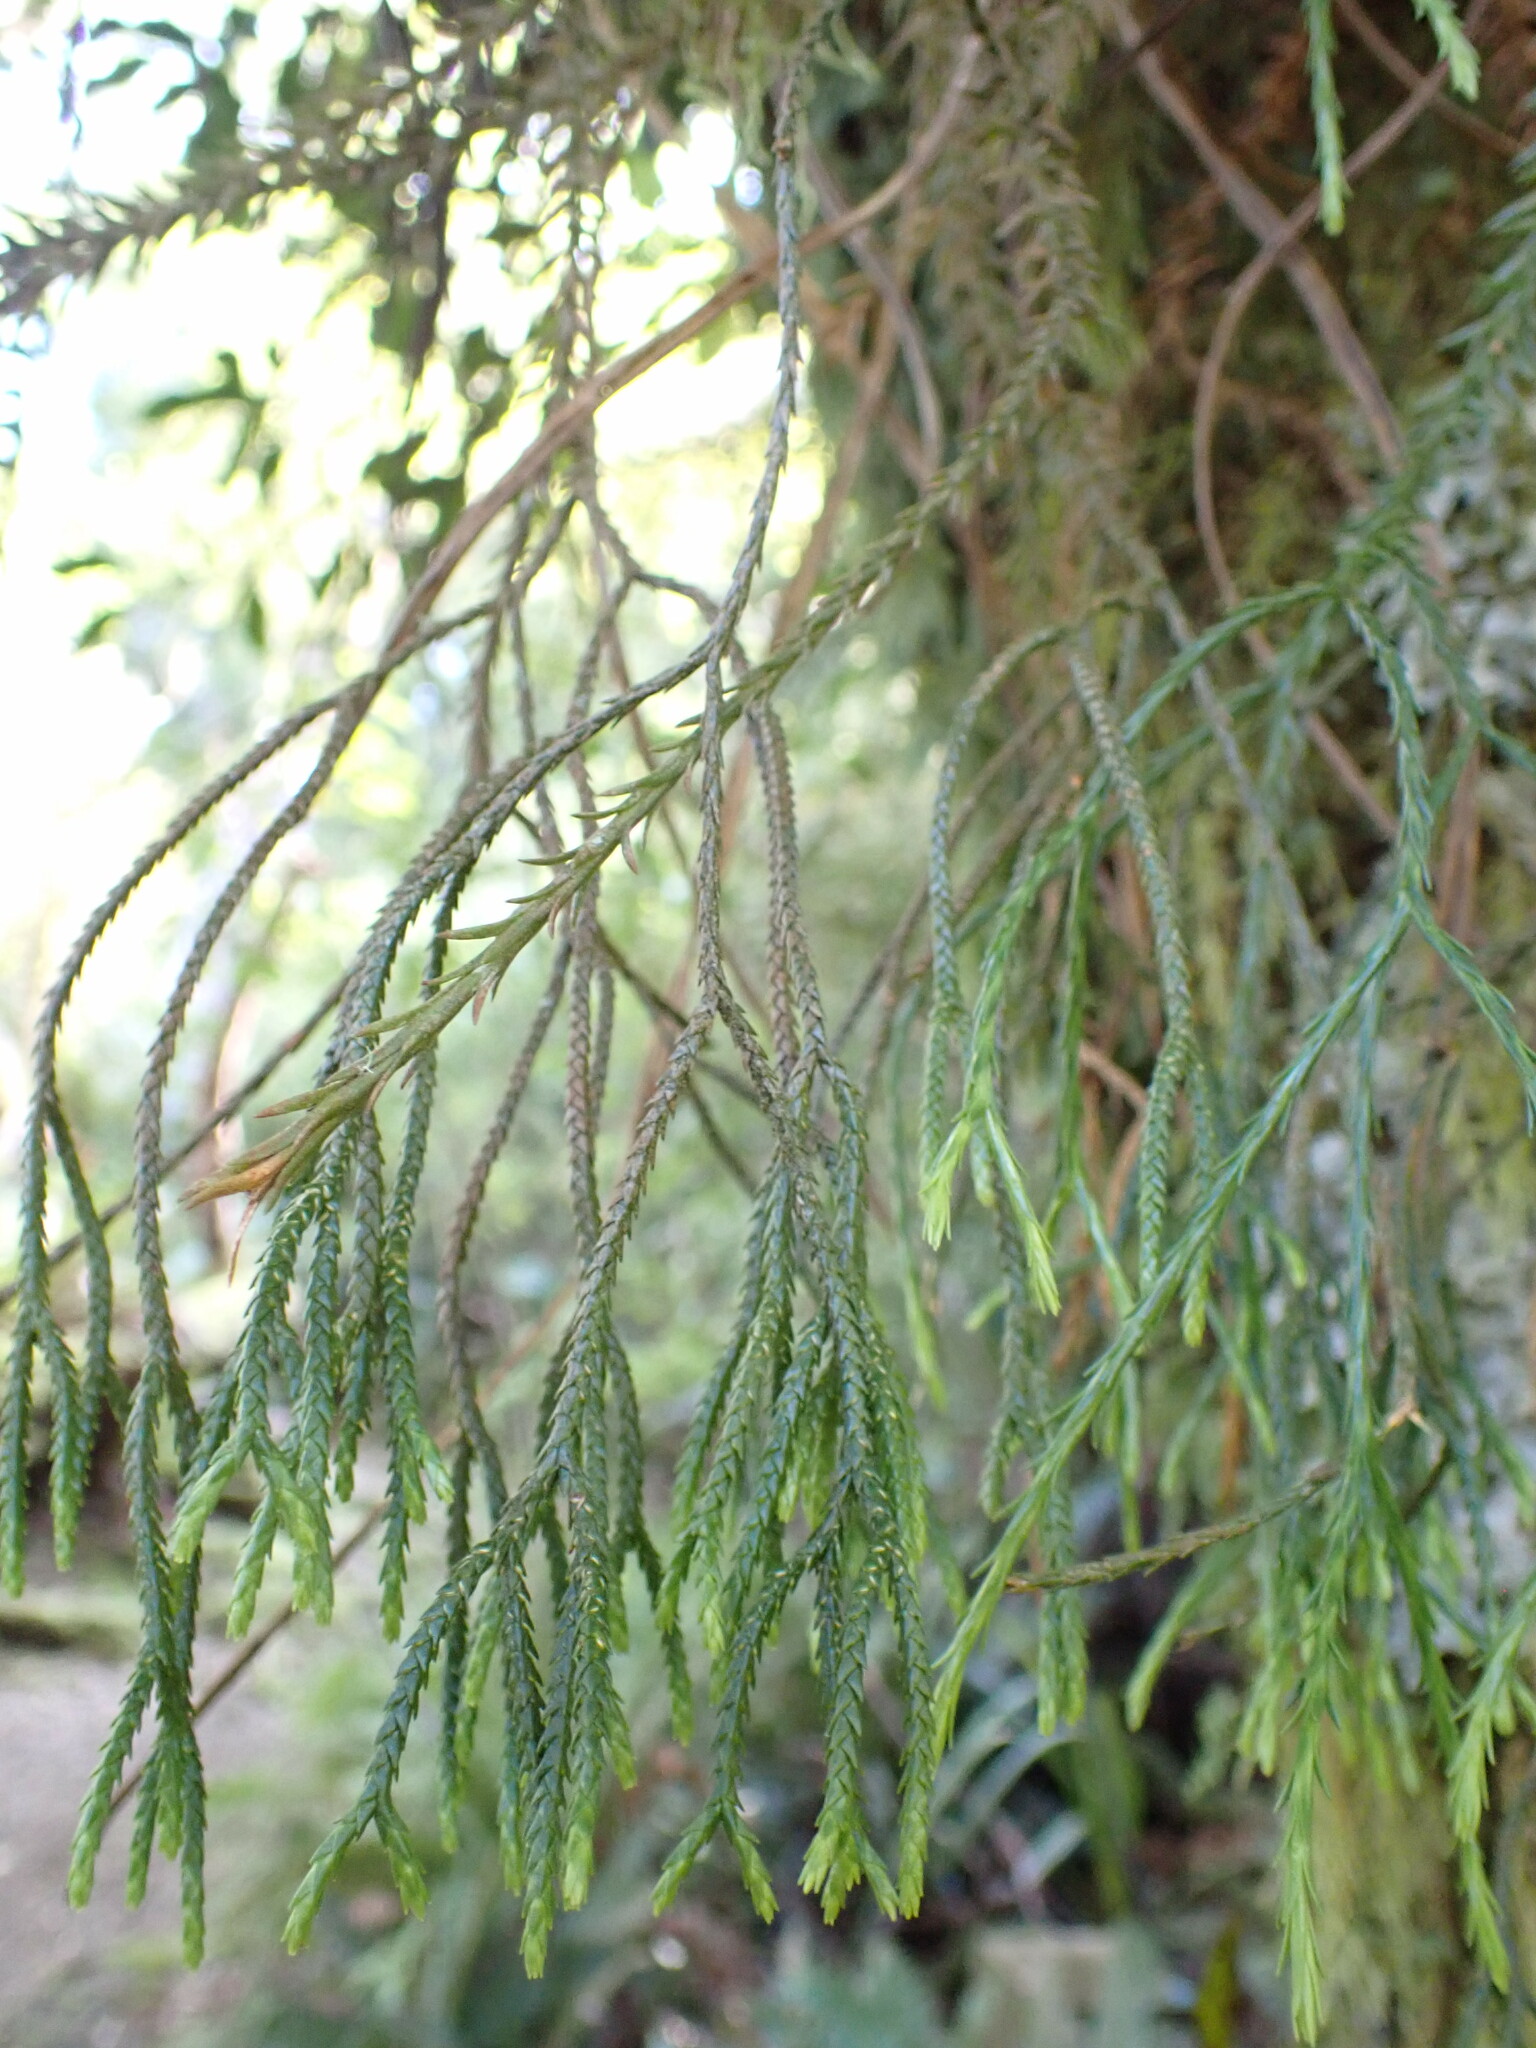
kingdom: Plantae
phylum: Tracheophyta
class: Lycopodiopsida
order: Lycopodiales
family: Lycopodiaceae
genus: Phlegmariurus
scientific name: Phlegmariurus billardierei
